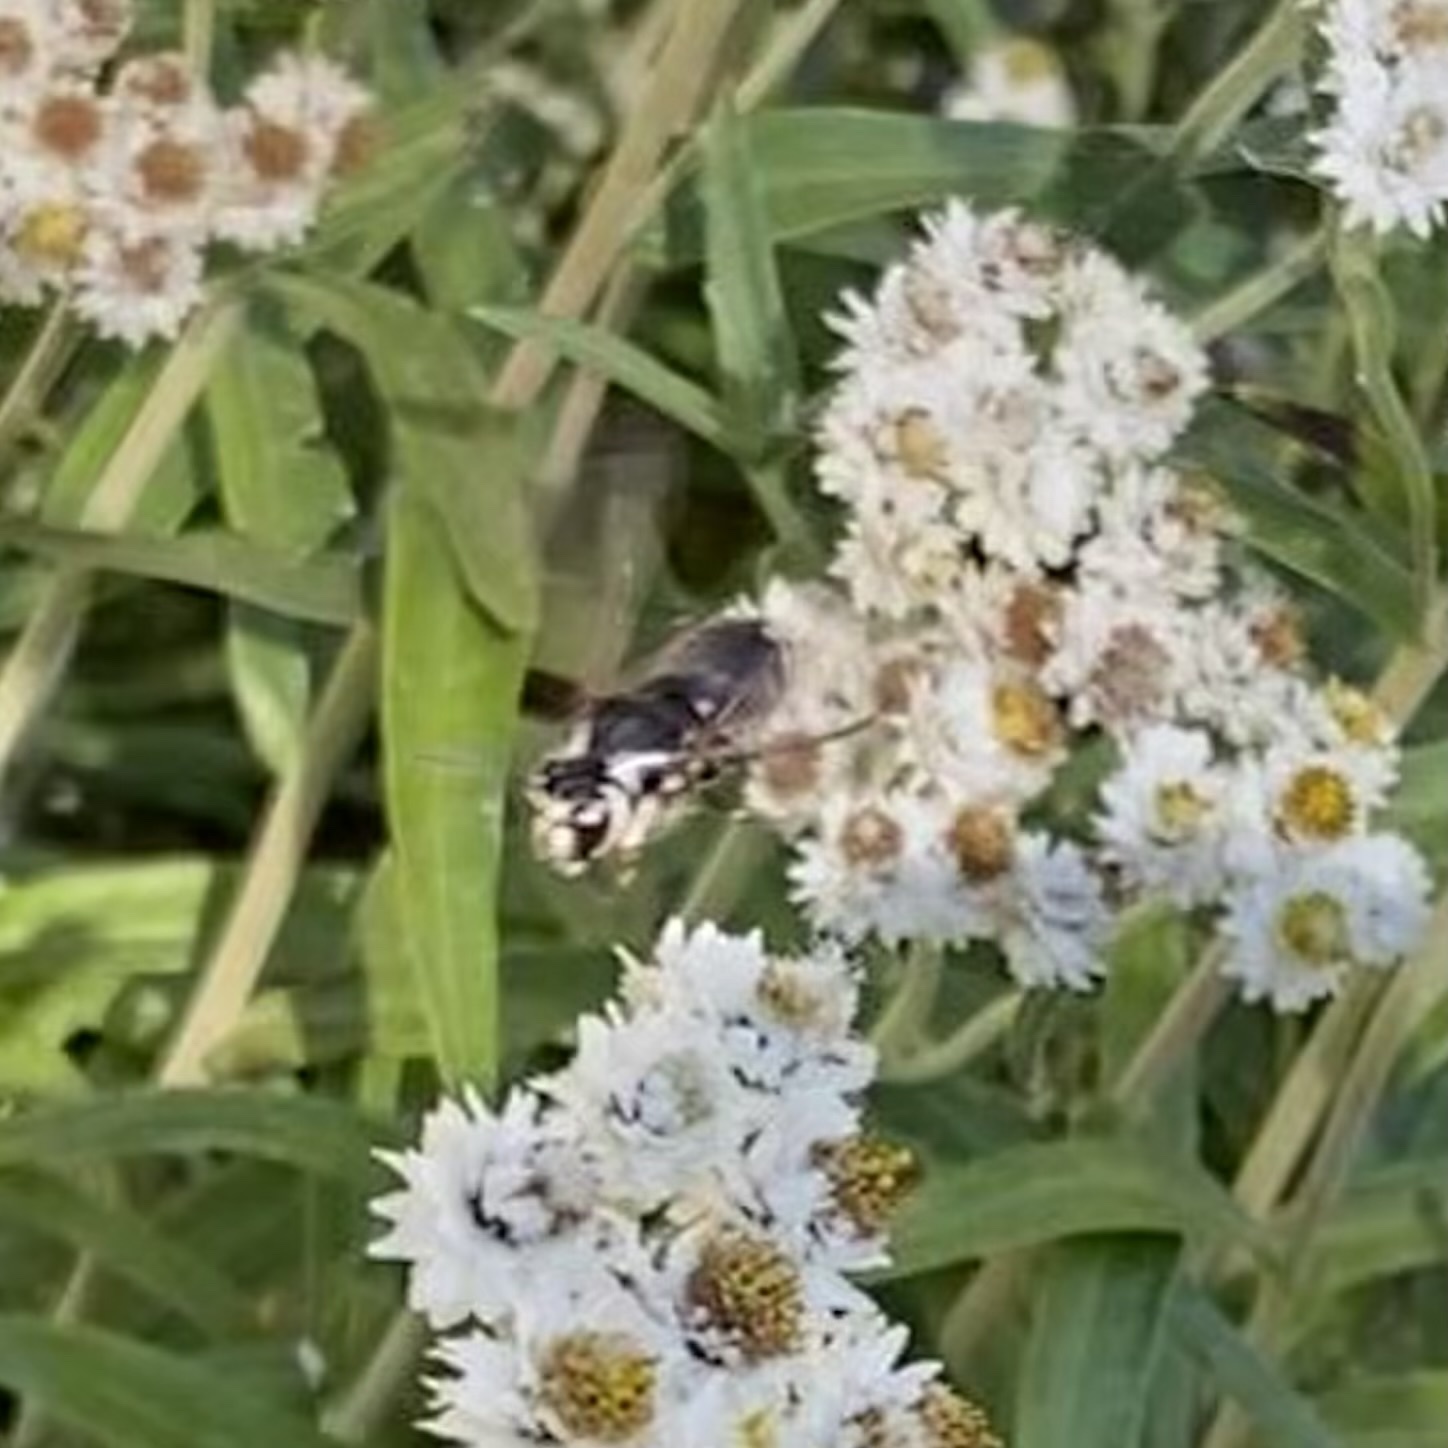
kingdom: Animalia
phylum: Arthropoda
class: Insecta
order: Hymenoptera
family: Vespidae
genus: Dolichovespula
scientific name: Dolichovespula maculata
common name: Bald-faced hornet
